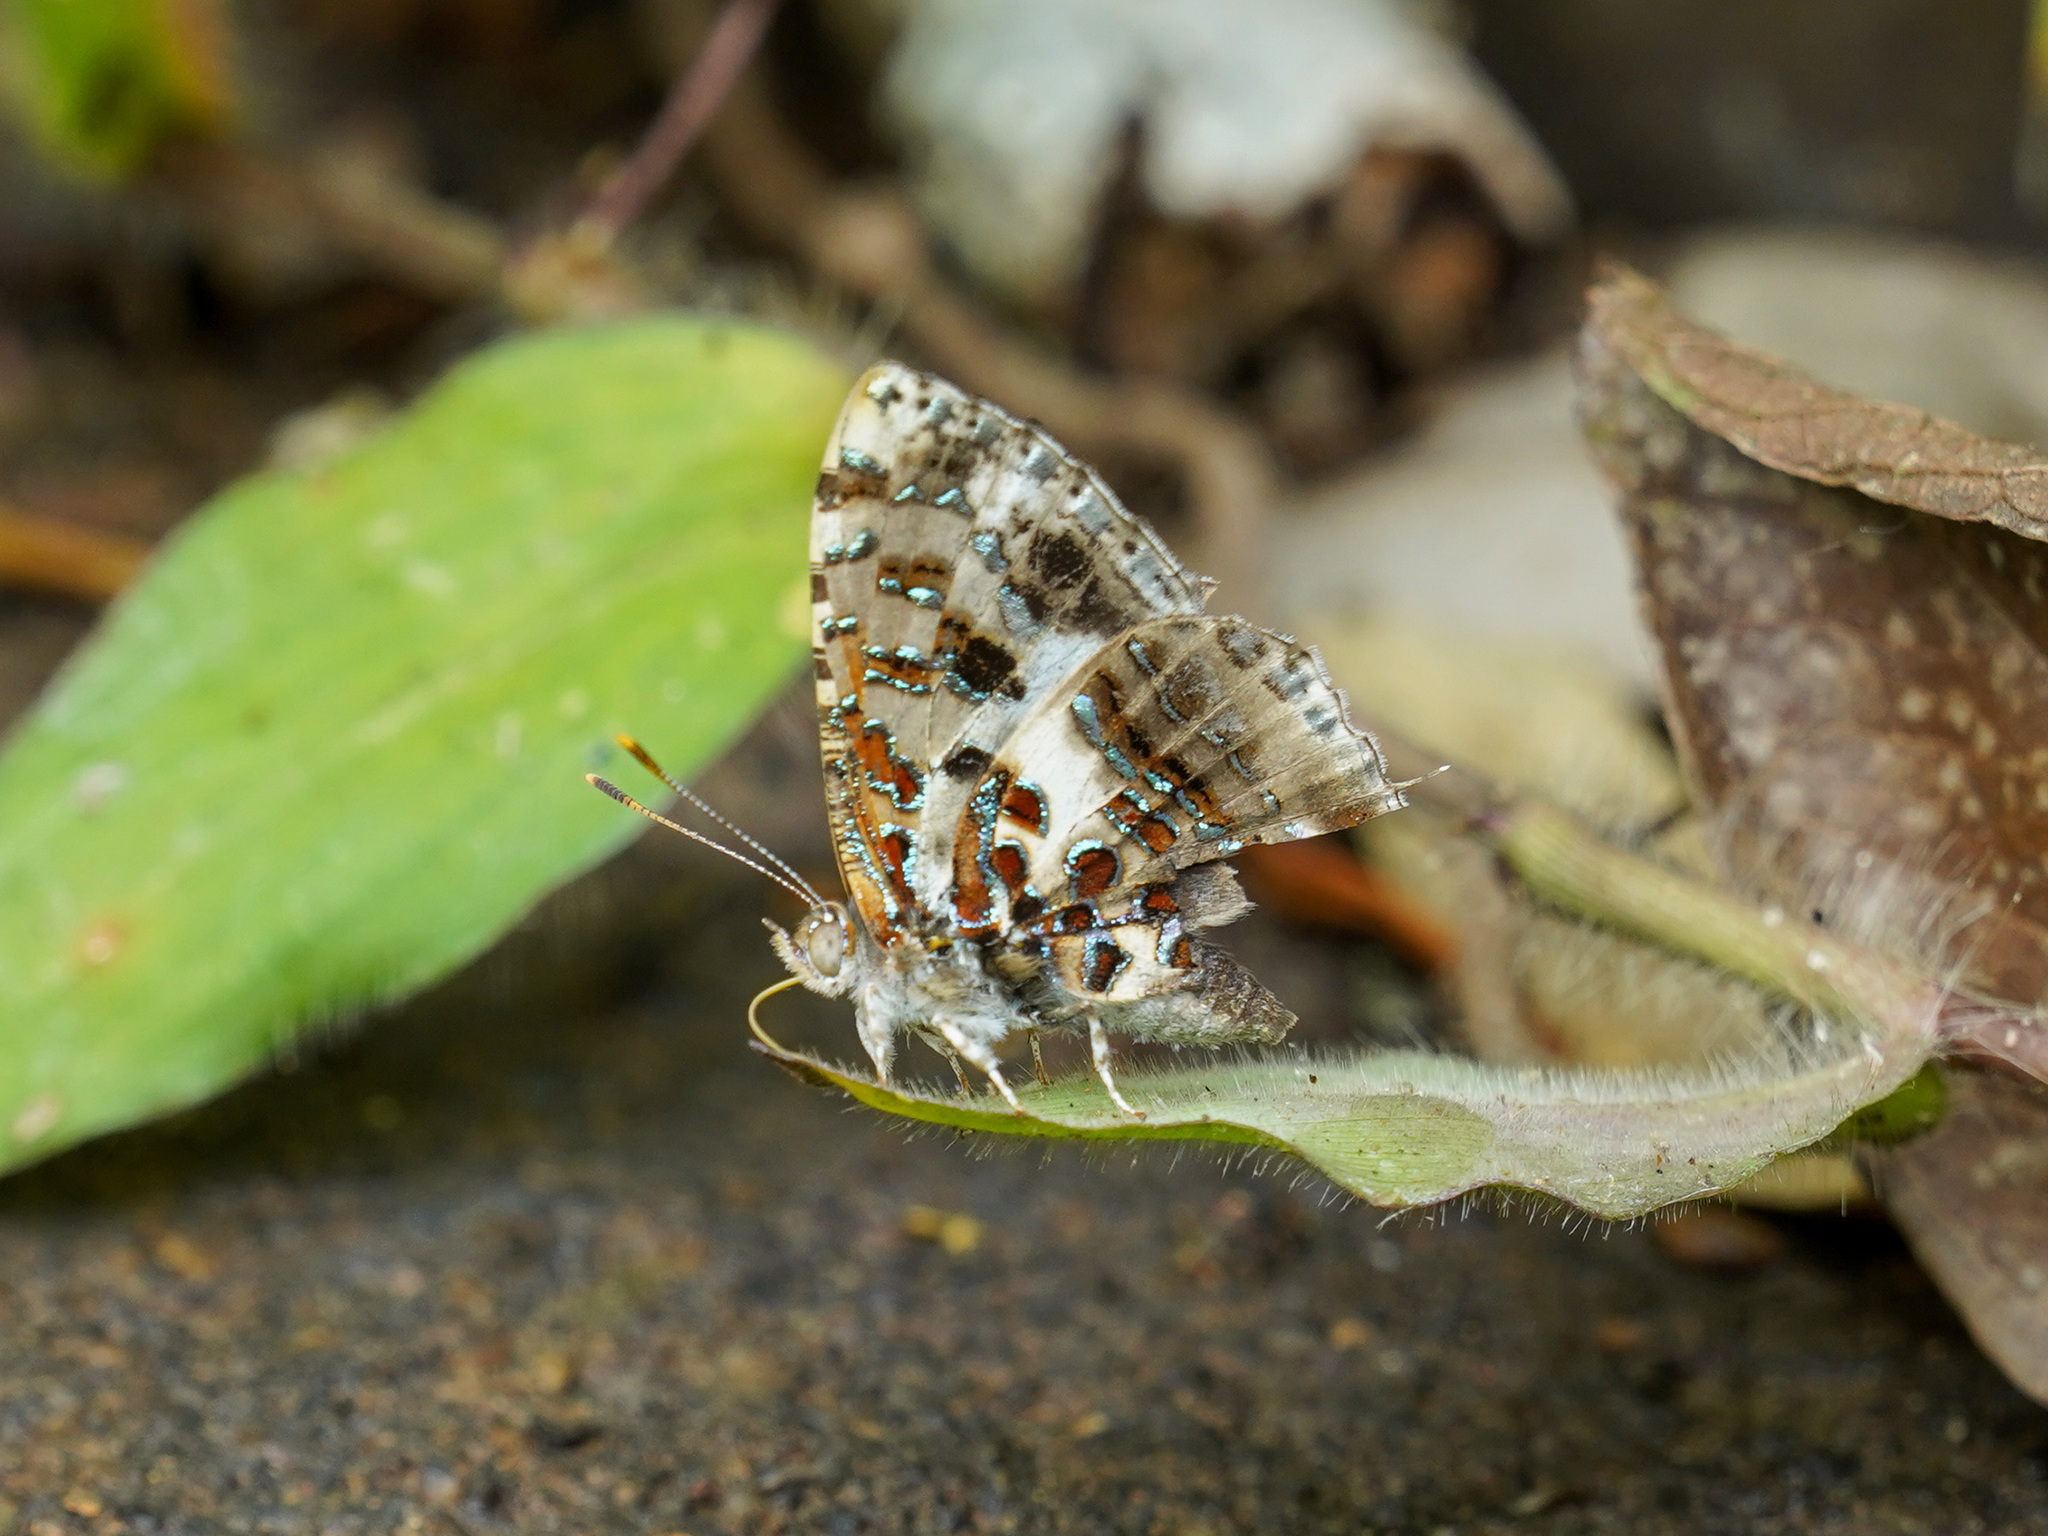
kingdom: Animalia
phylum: Arthropoda
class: Insecta
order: Lepidoptera
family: Lycaenidae
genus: Catapaecilma
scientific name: Catapaecilma major
